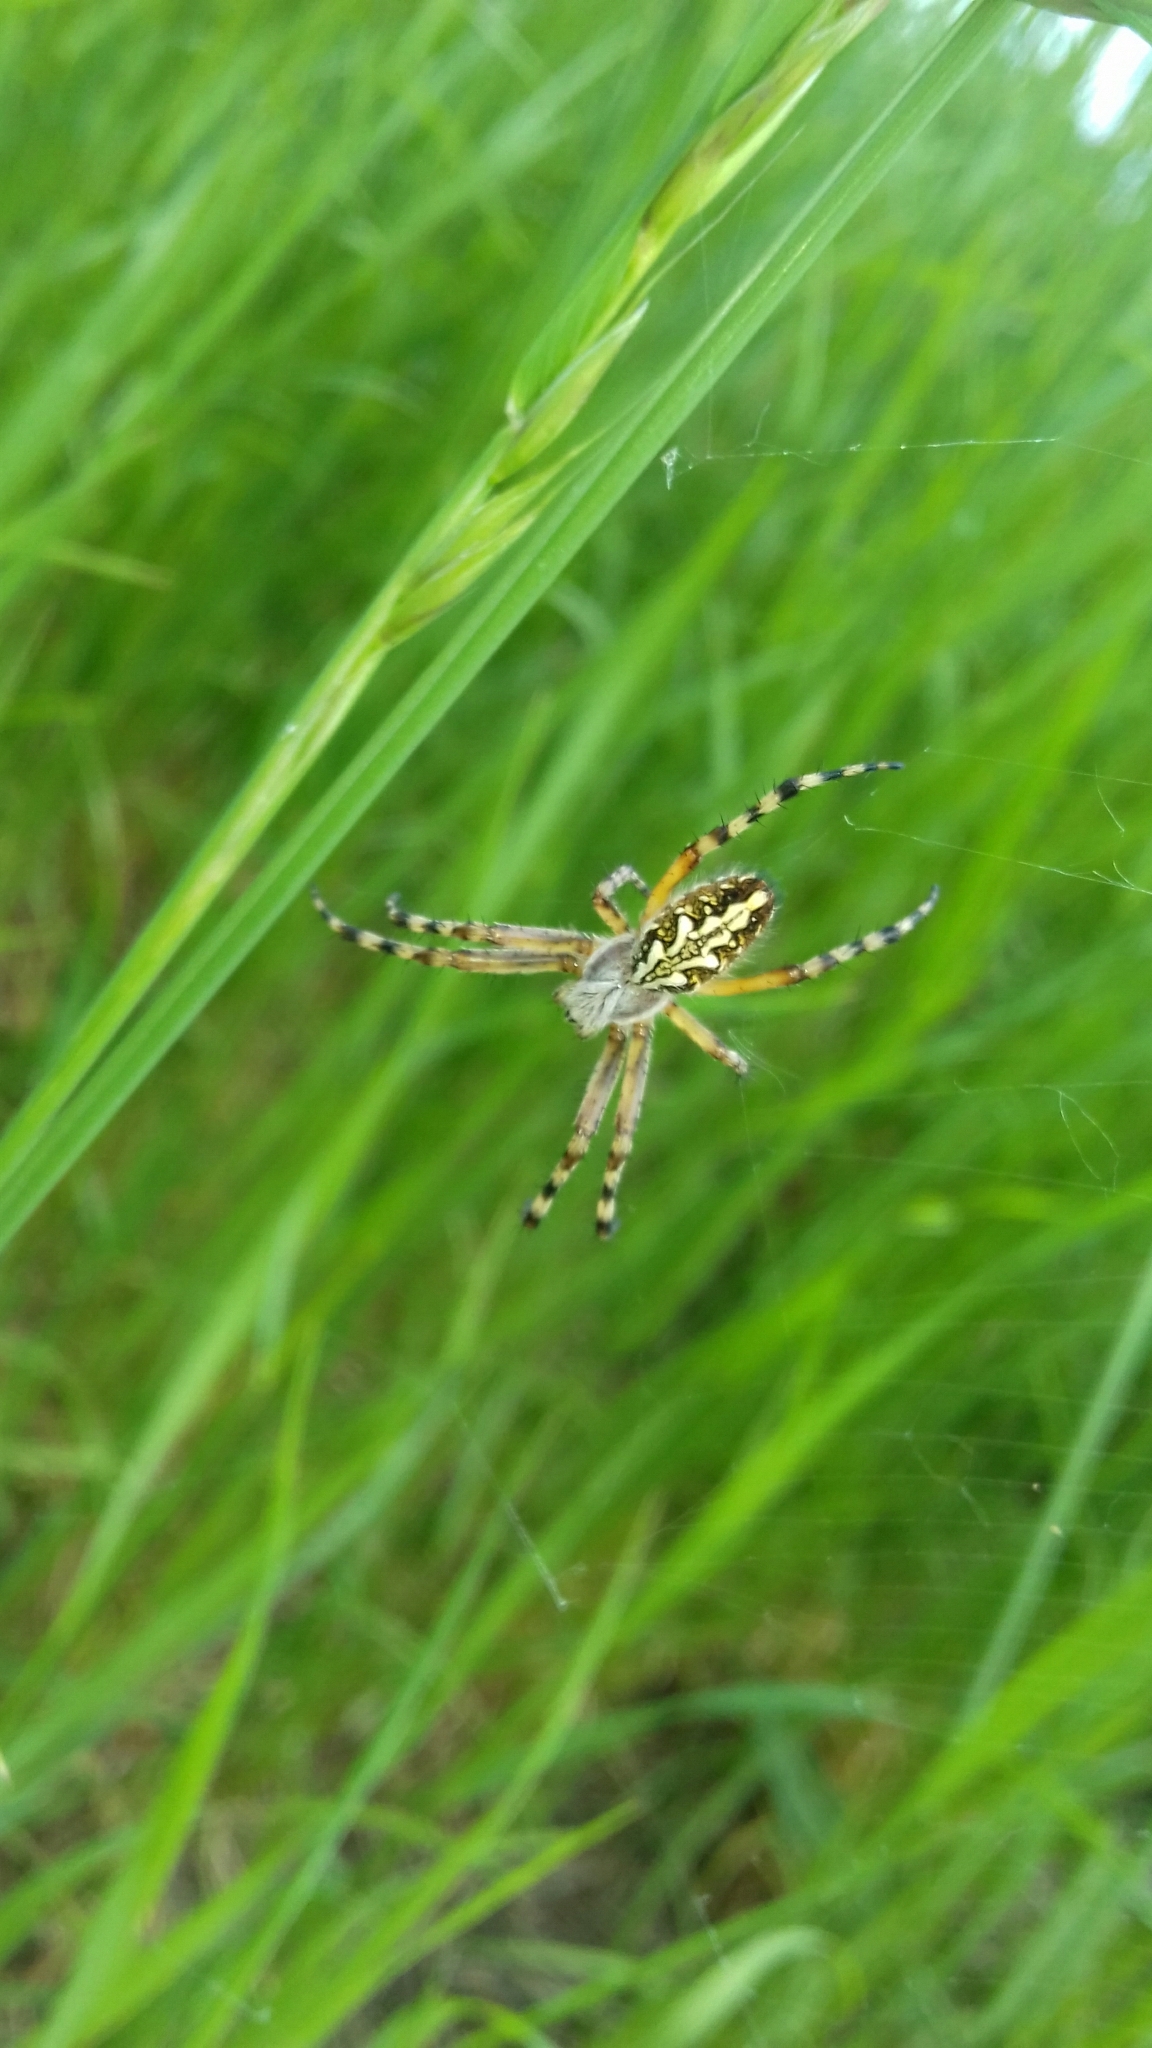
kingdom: Animalia
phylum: Arthropoda
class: Arachnida
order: Araneae
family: Araneidae
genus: Aculepeira
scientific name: Aculepeira ceropegia
